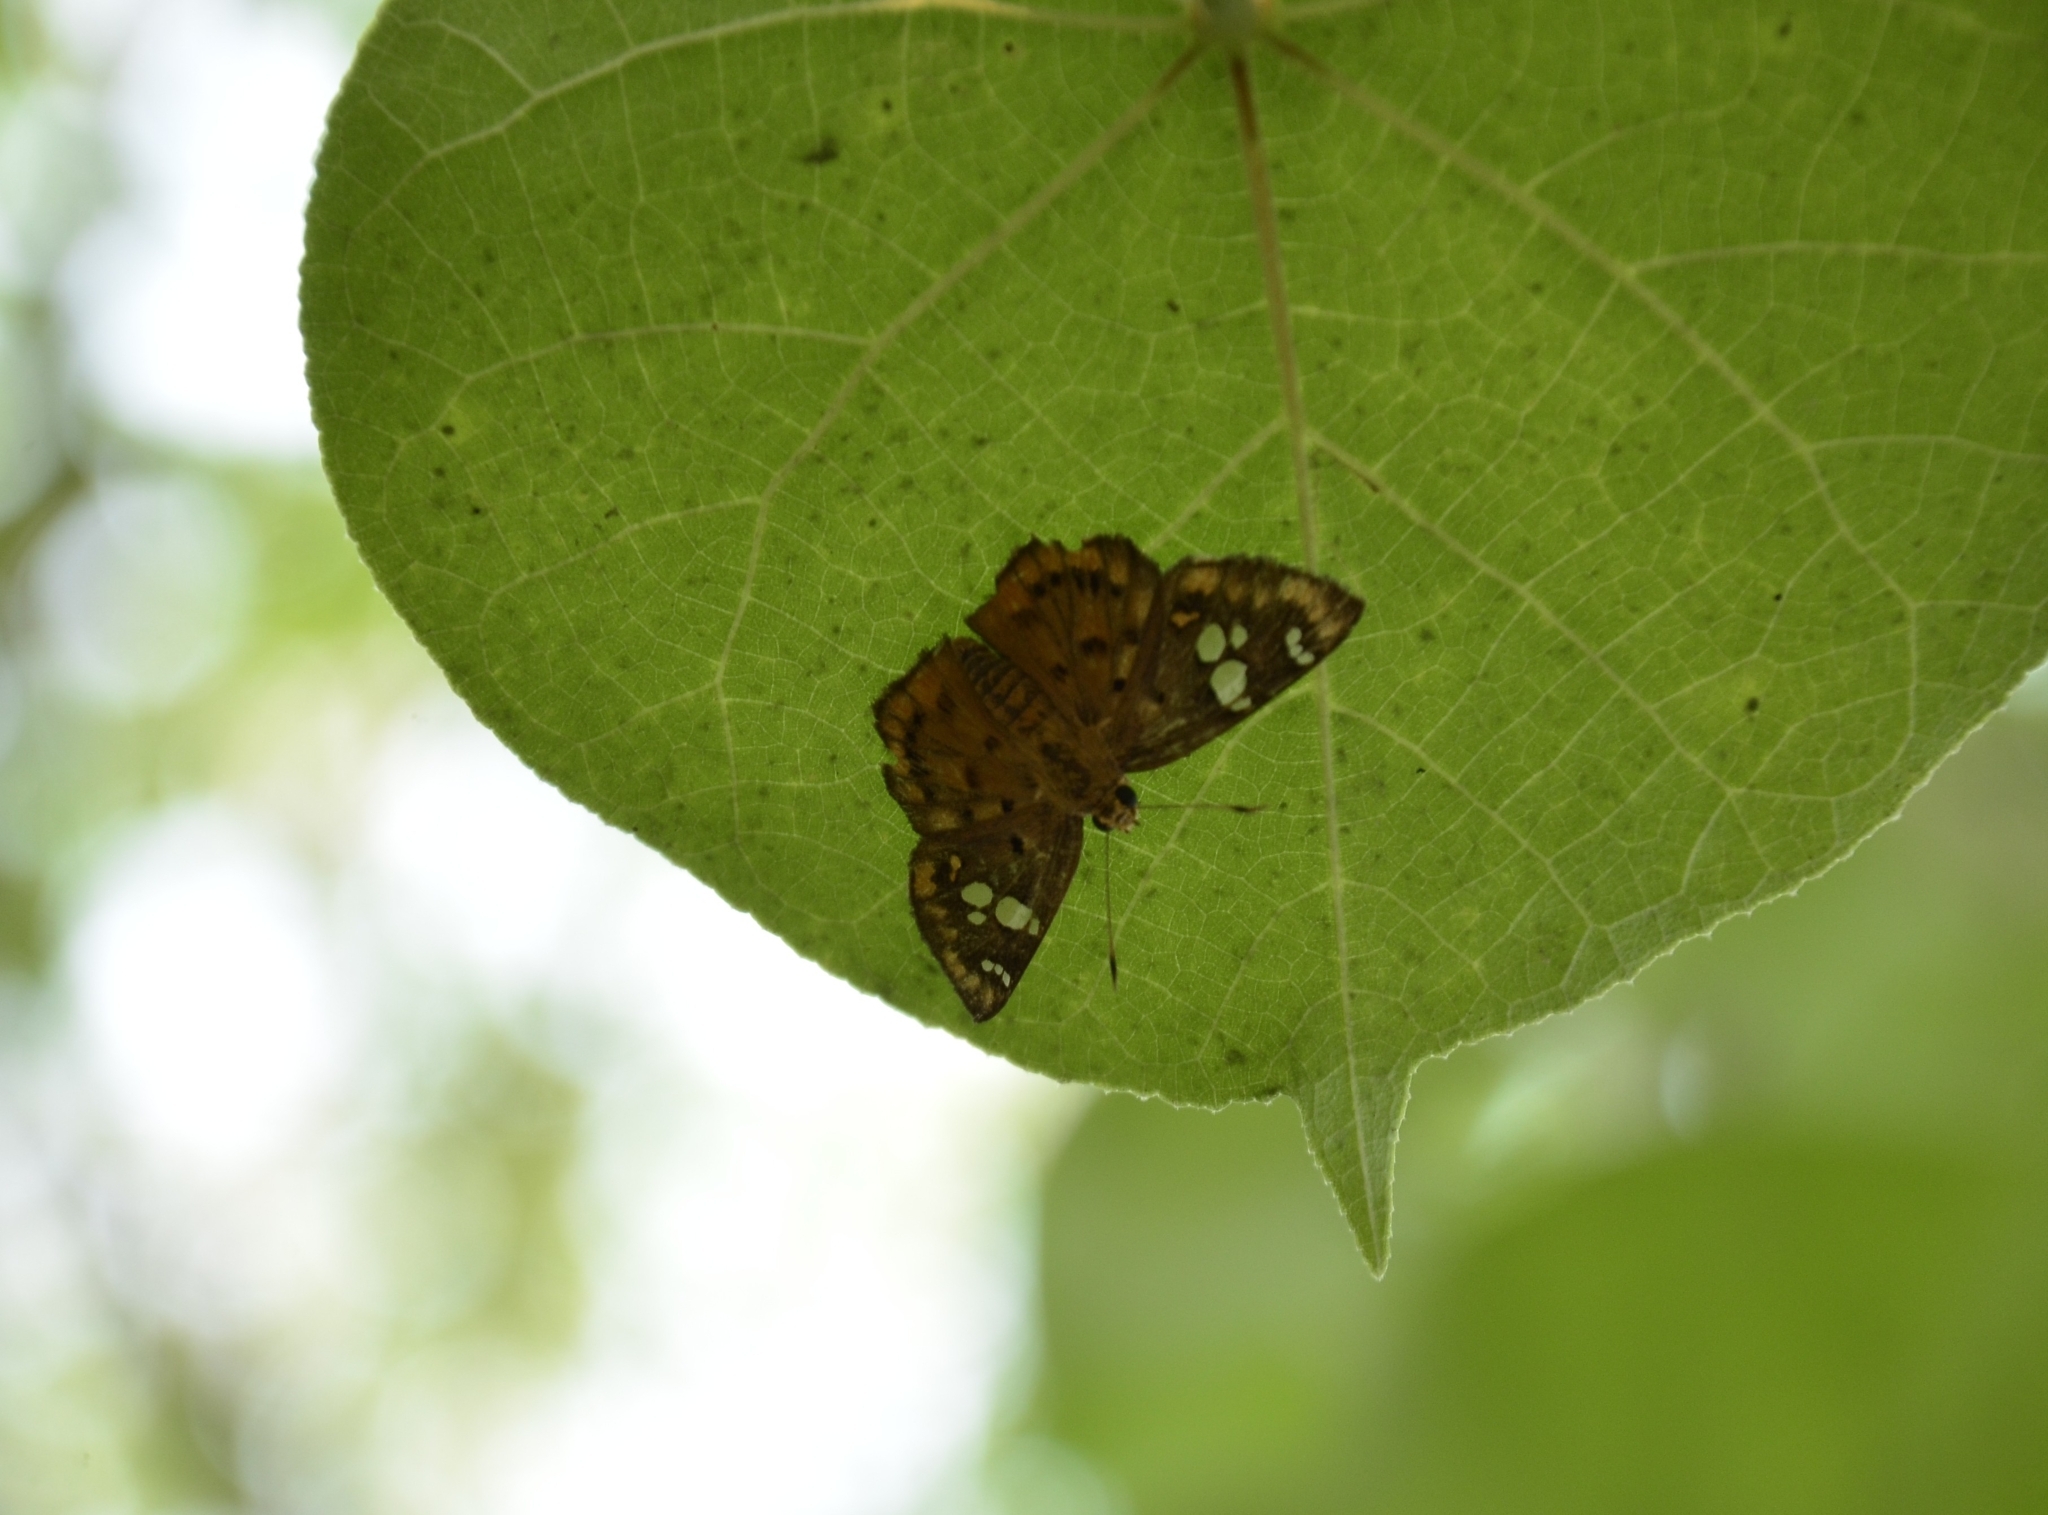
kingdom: Animalia
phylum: Arthropoda
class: Insecta
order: Lepidoptera
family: Hesperiidae
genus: Coladenia
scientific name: Coladenia
